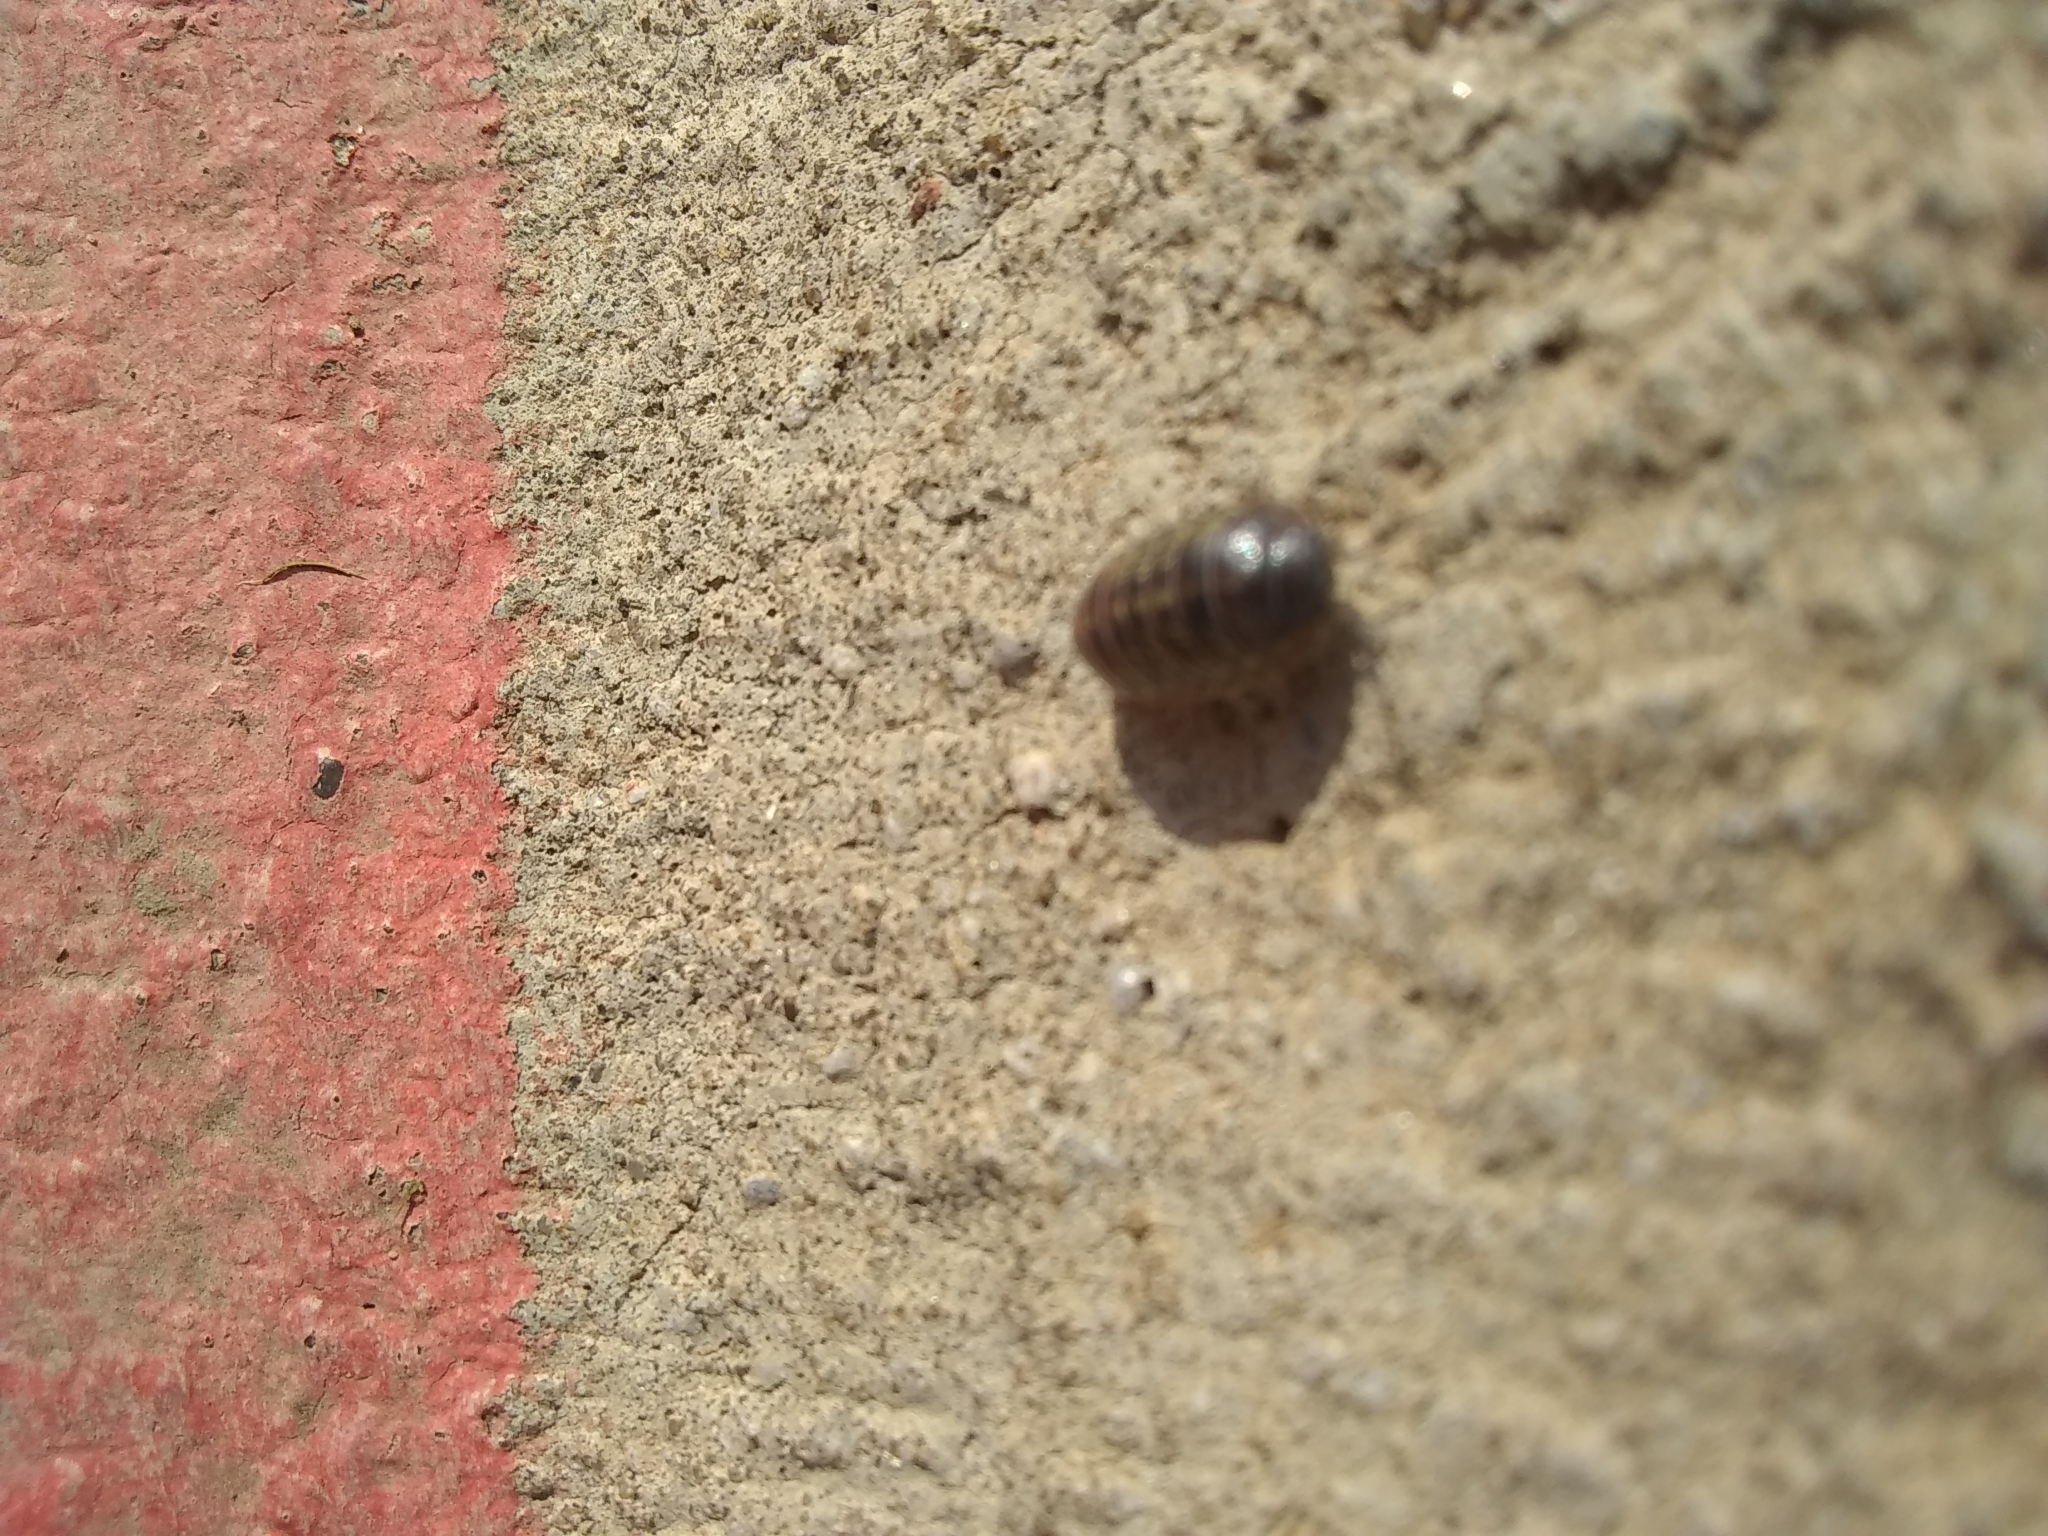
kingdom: Animalia
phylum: Arthropoda
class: Malacostraca
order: Isopoda
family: Armadillidiidae
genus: Armadillidium
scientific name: Armadillidium vulgare
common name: Common pill woodlouse
